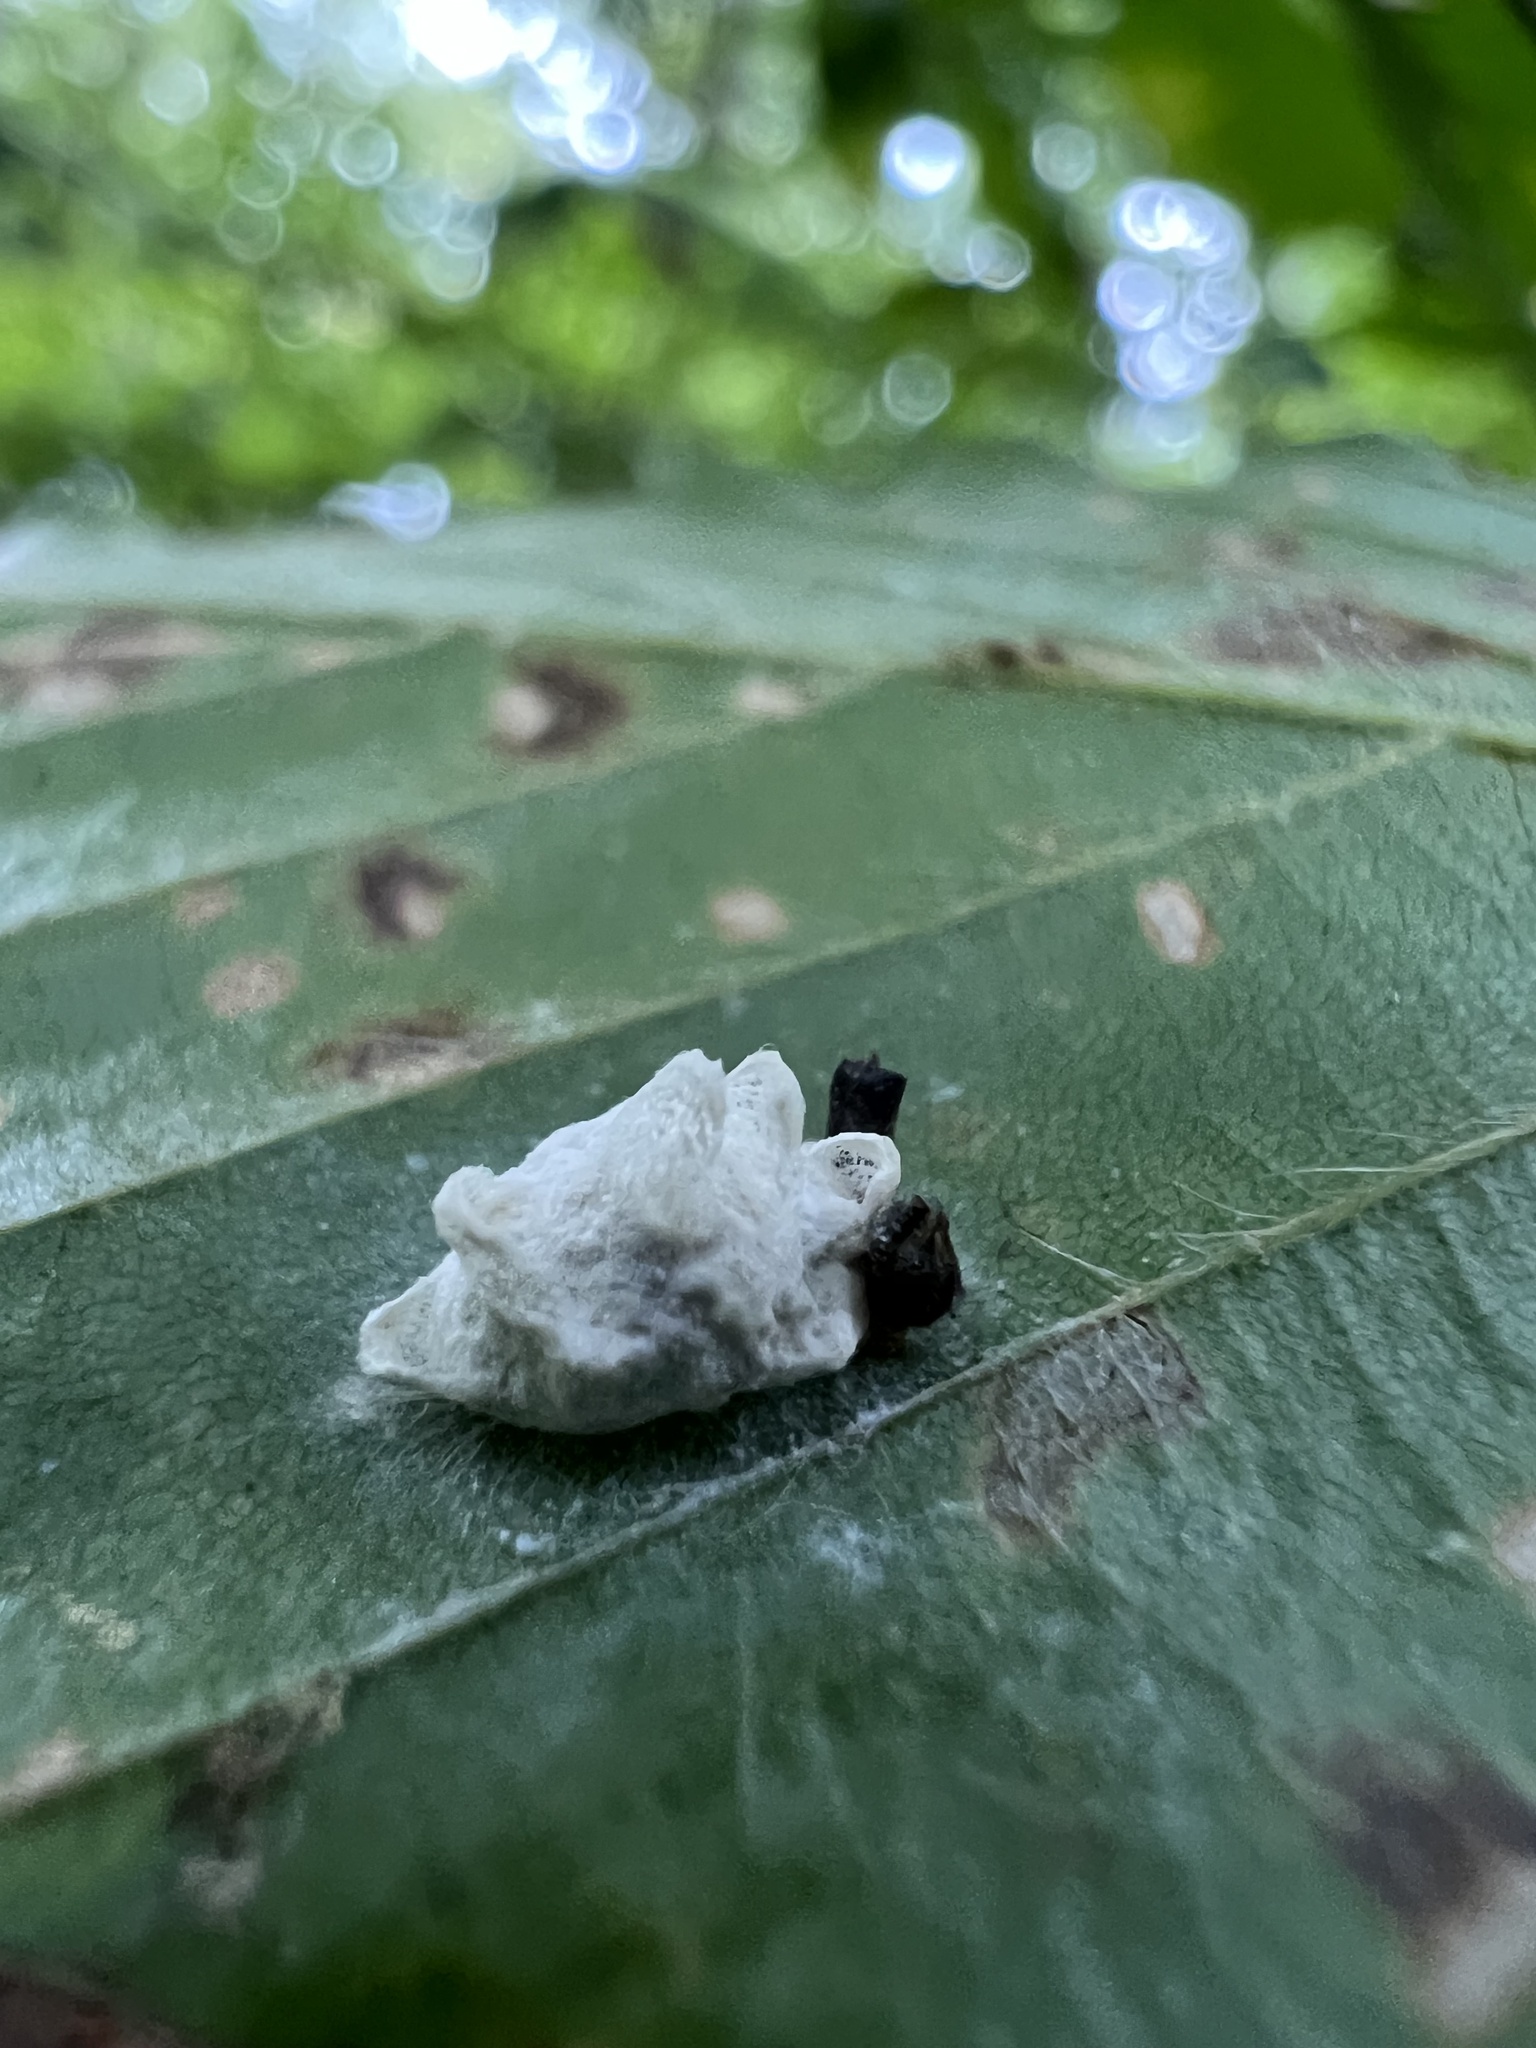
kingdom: Animalia
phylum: Arthropoda
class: Insecta
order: Lepidoptera
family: Epipyropidae
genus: Fulgoraecia
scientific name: Fulgoraecia exigua
